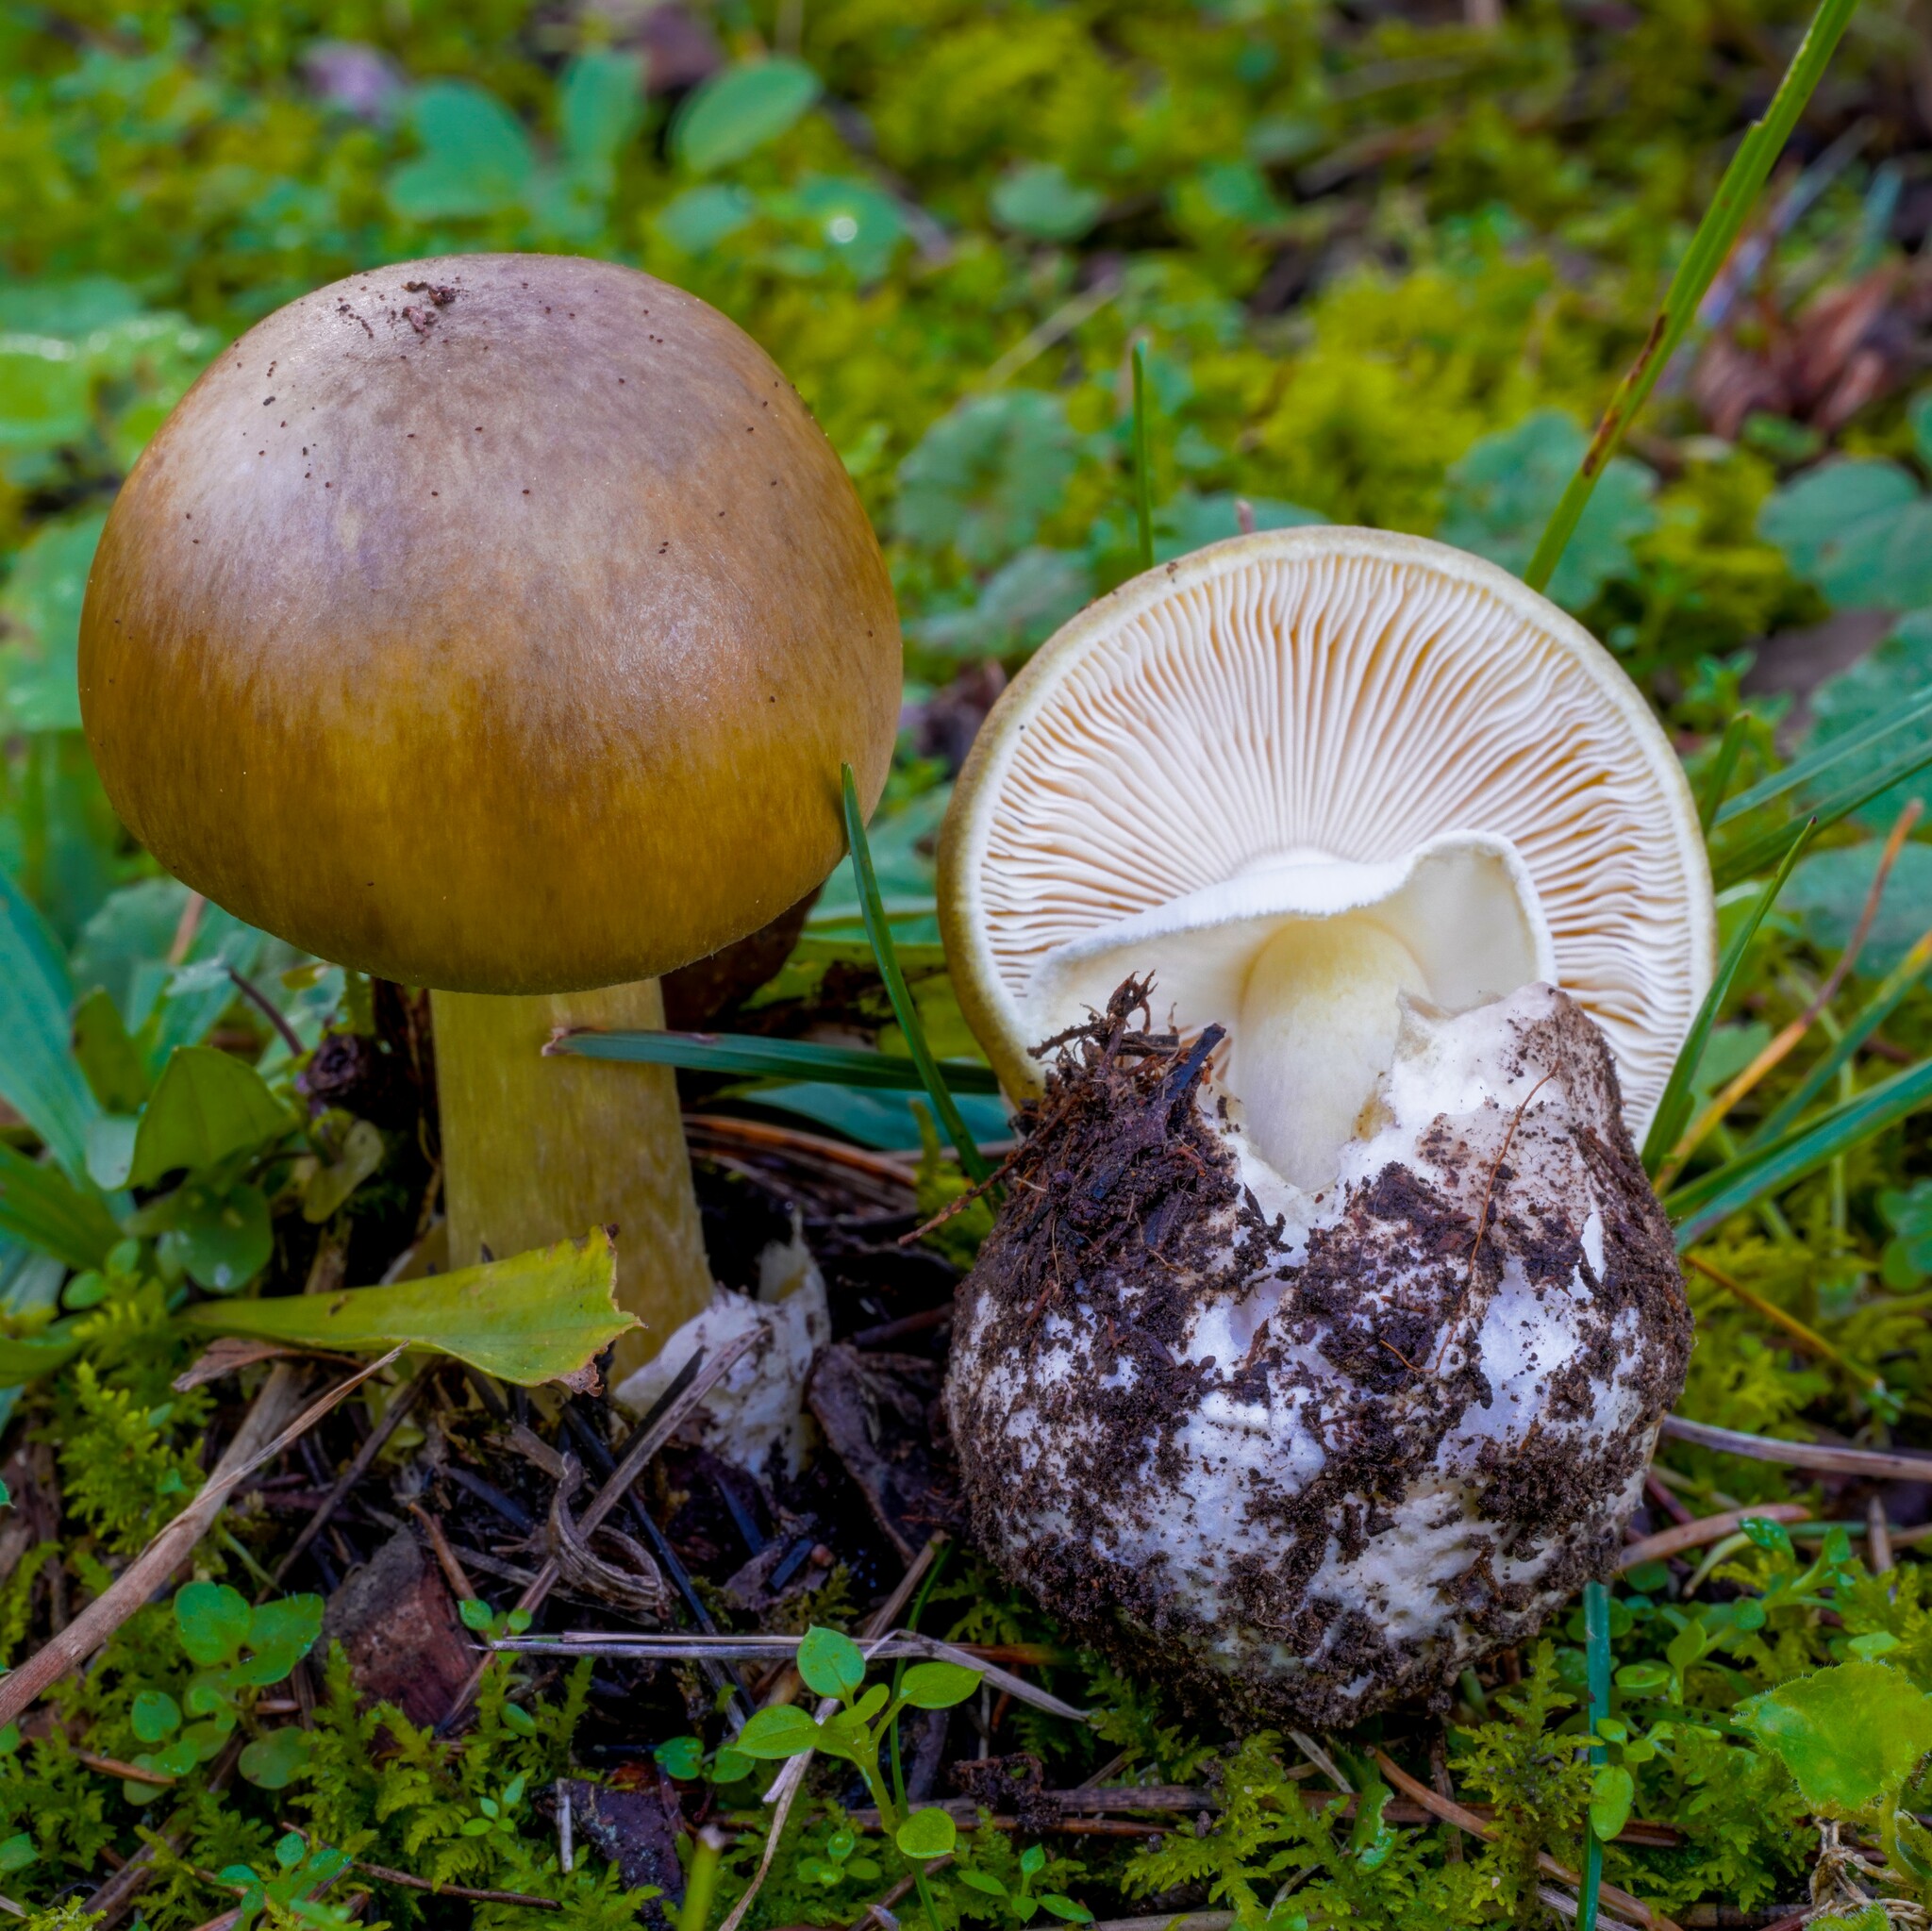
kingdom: Fungi
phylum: Basidiomycota
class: Agaricomycetes
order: Agaricales
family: Amanitaceae
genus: Amanita
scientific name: Amanita phalloides
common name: Death cap
